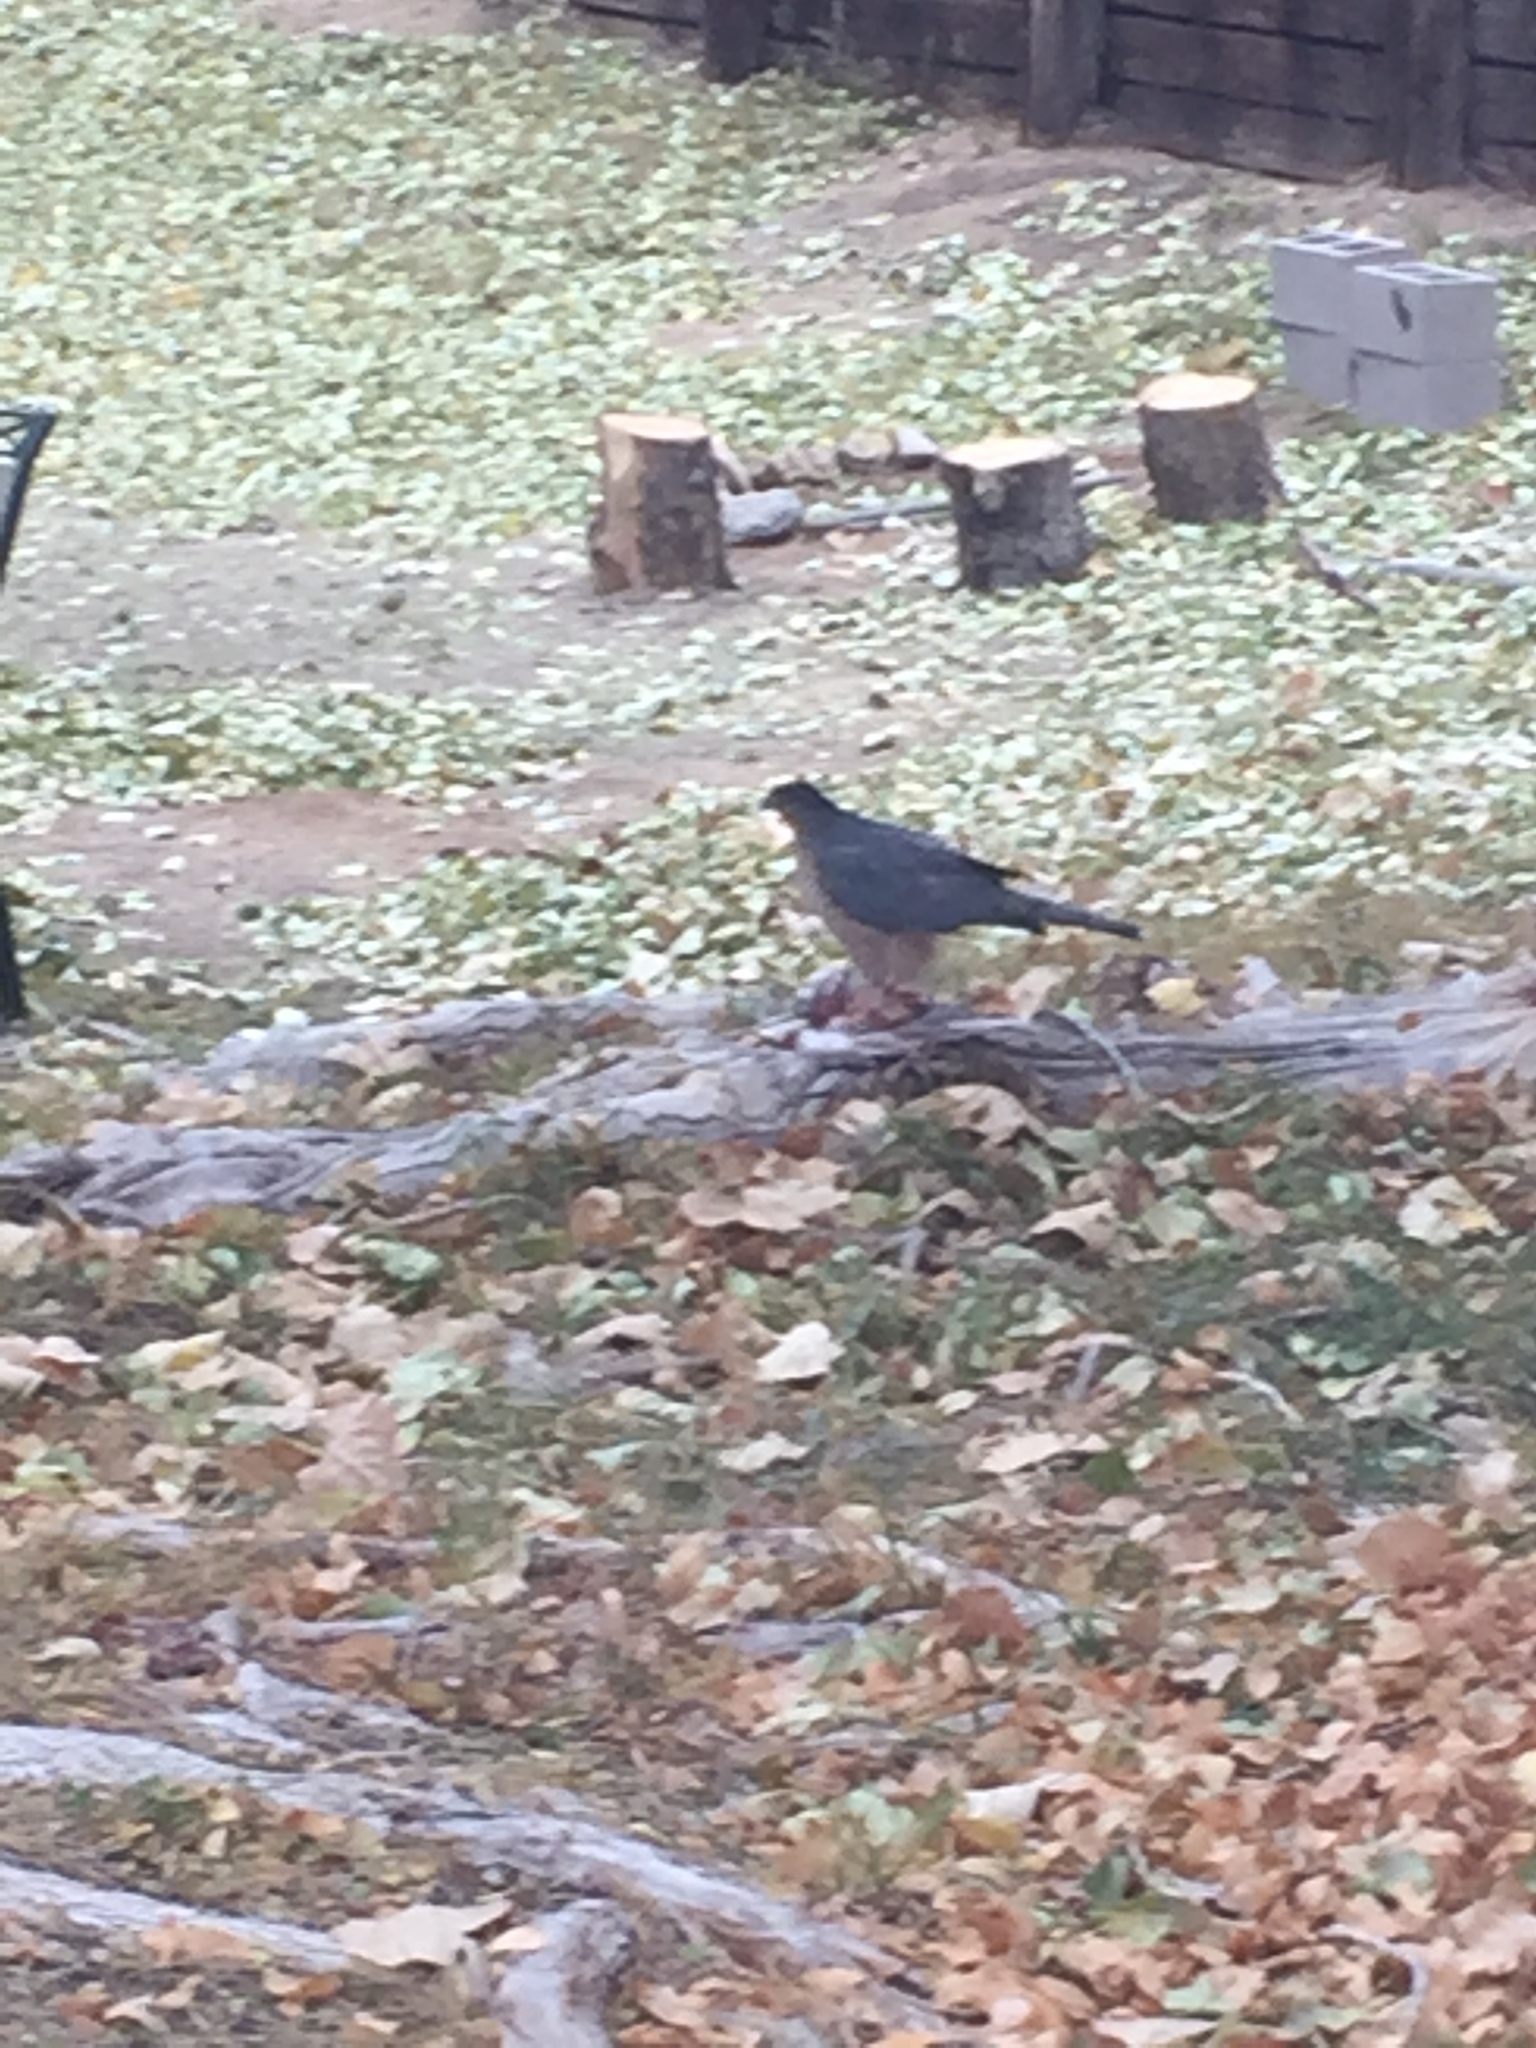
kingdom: Animalia
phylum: Chordata
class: Aves
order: Accipitriformes
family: Accipitridae
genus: Accipiter
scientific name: Accipiter cooperii
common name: Cooper's hawk
